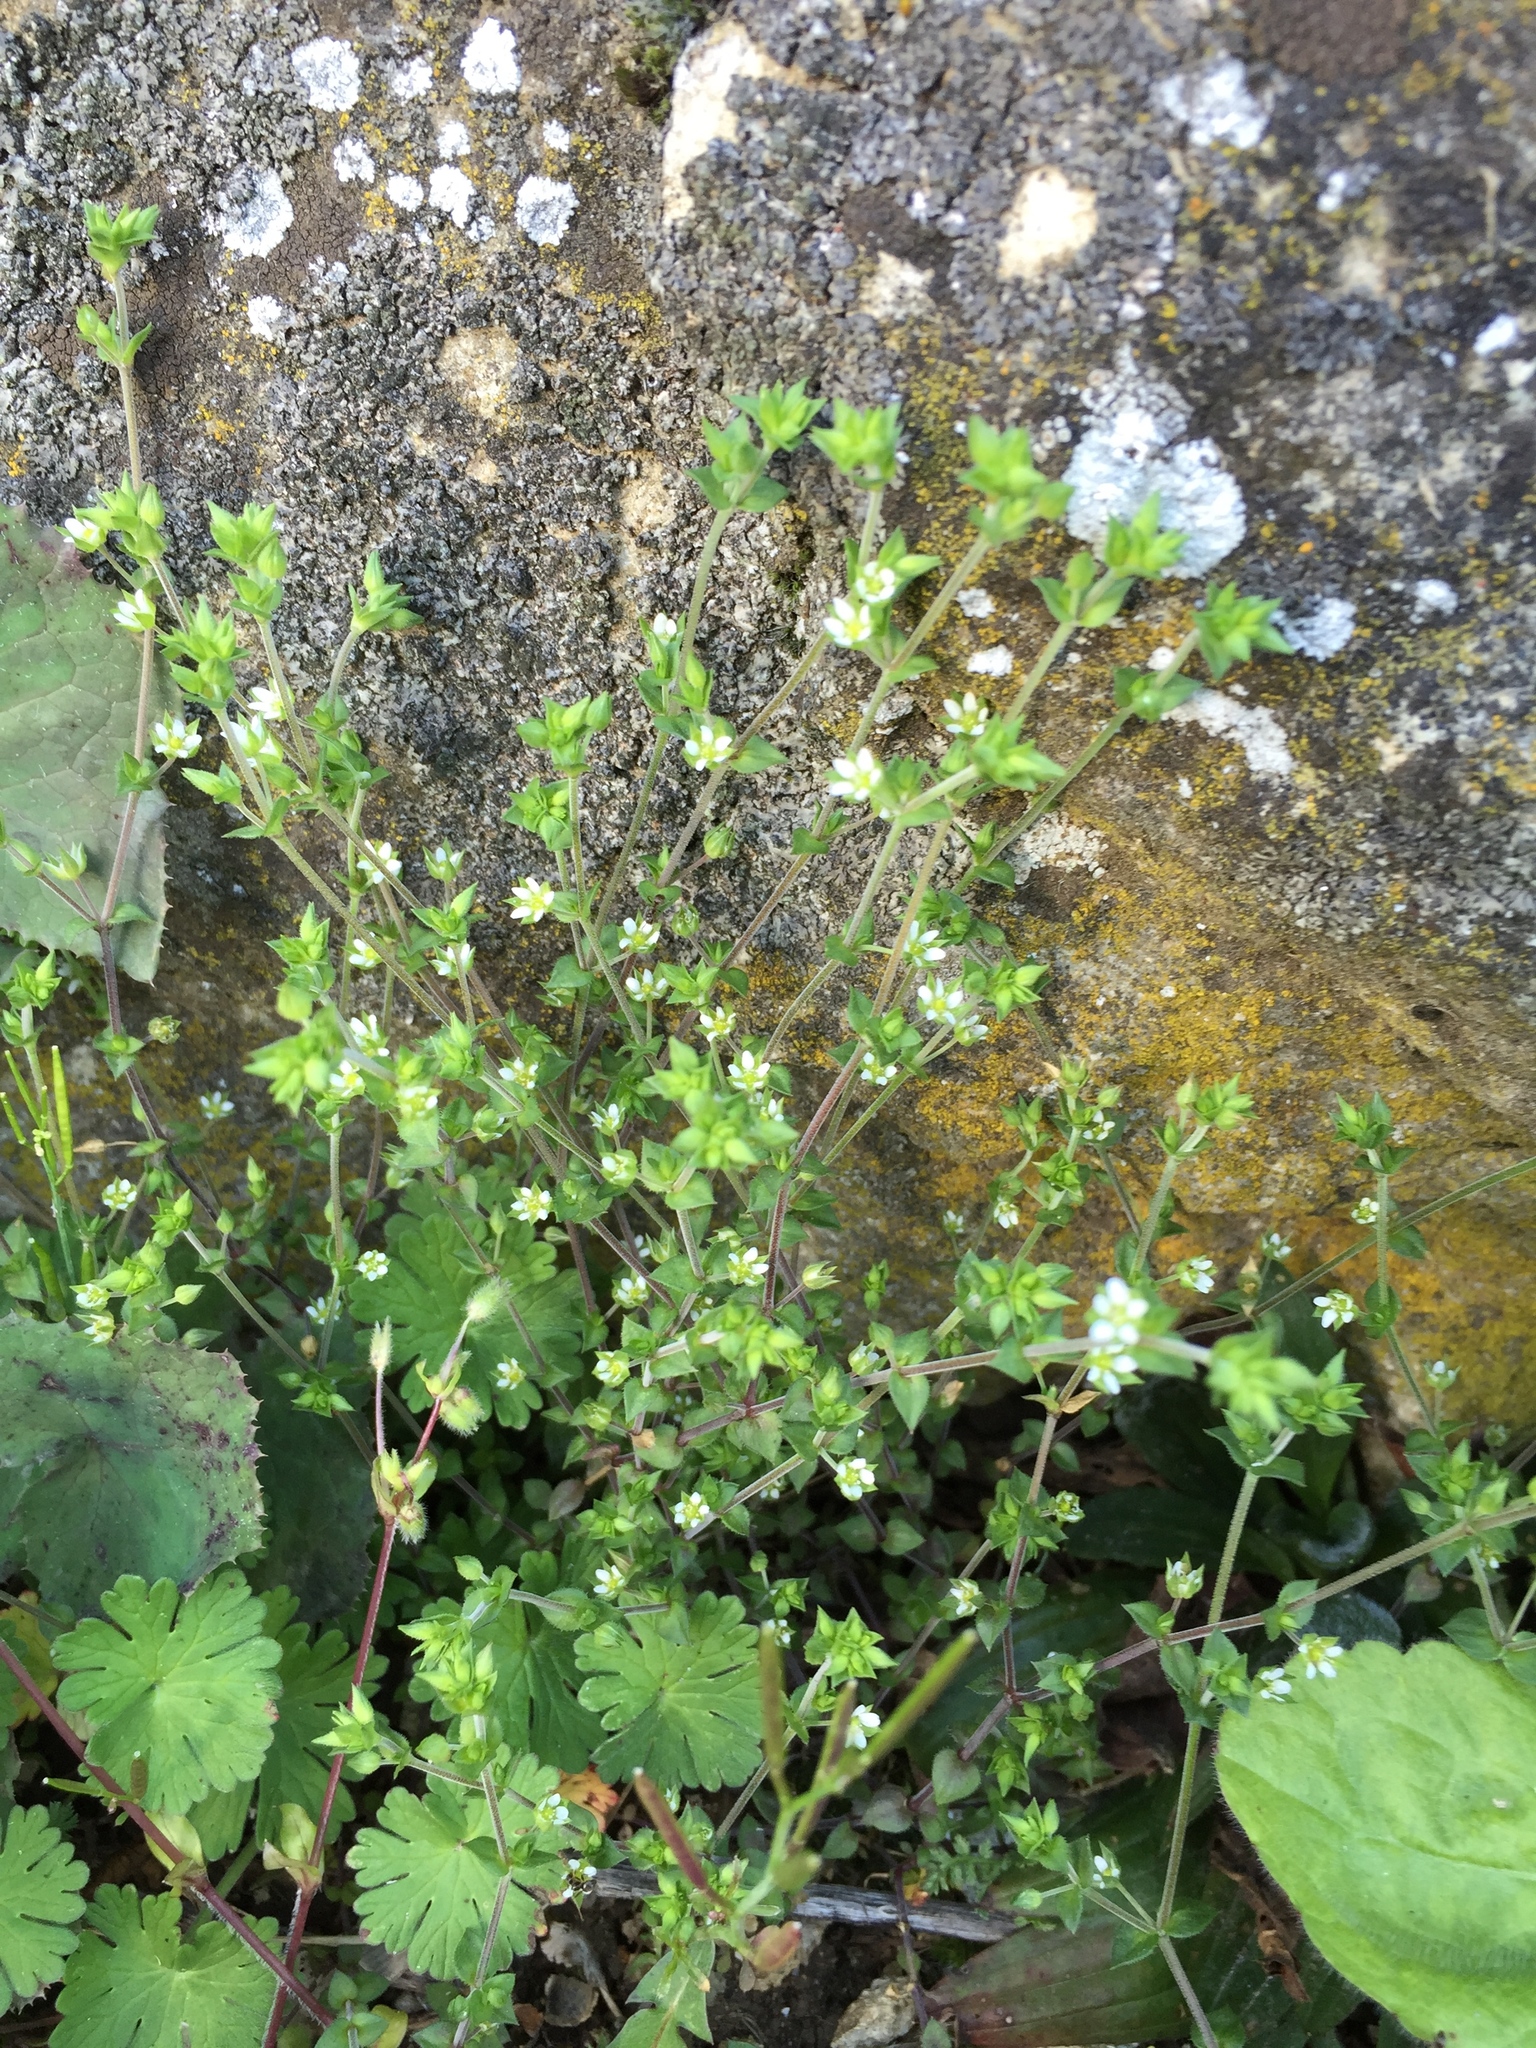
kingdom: Plantae
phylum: Tracheophyta
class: Magnoliopsida
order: Caryophyllales
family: Caryophyllaceae
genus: Arenaria
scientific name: Arenaria serpyllifolia
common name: Thyme-leaved sandwort
